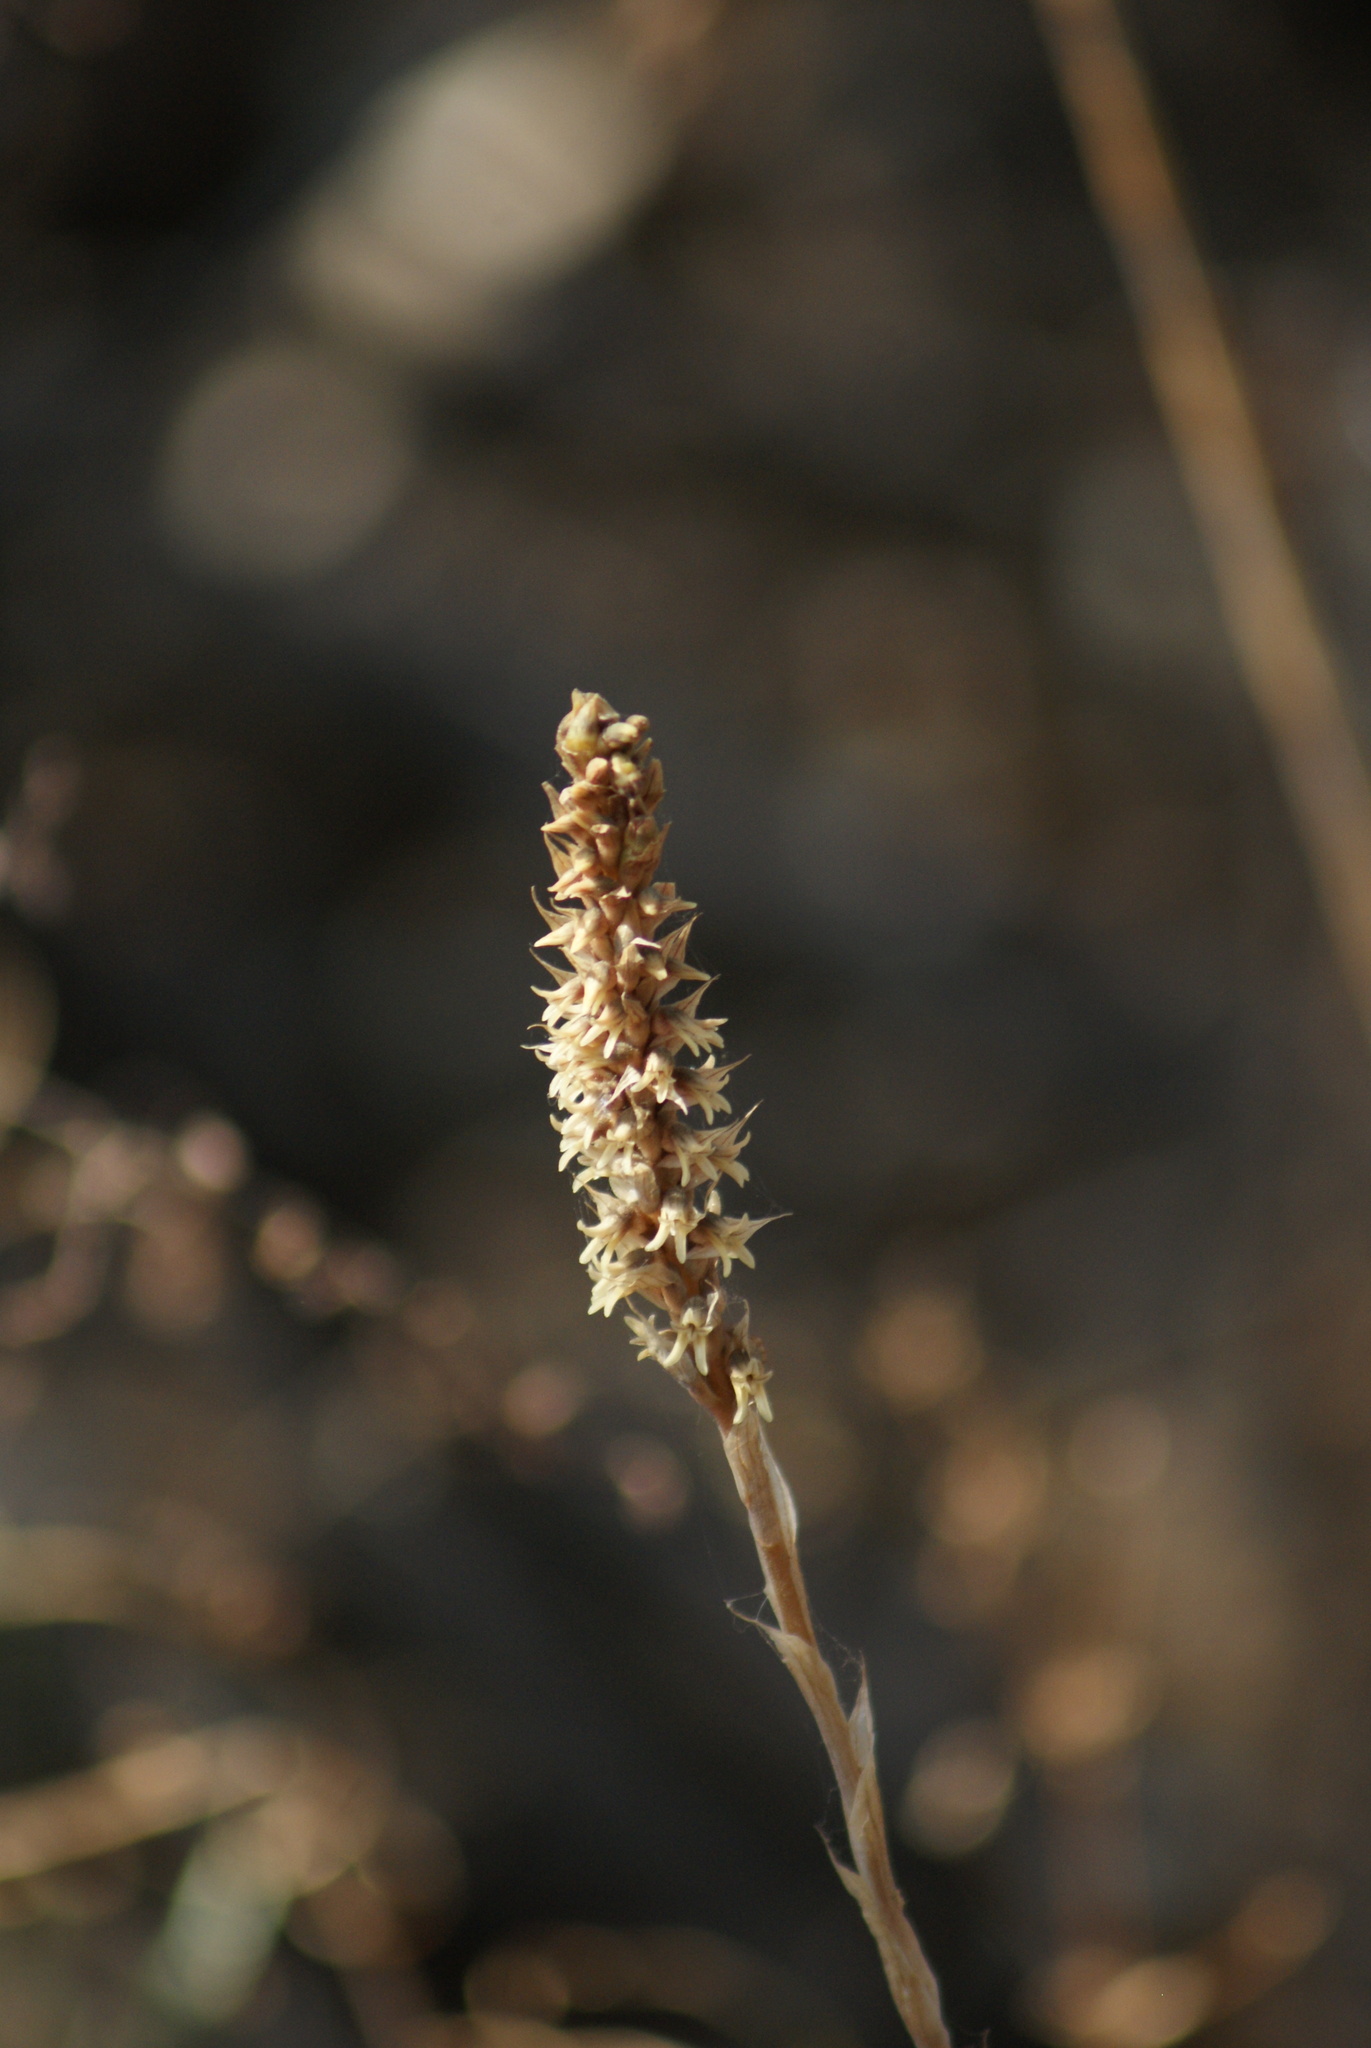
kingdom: Plantae
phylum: Tracheophyta
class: Liliopsida
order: Asparagales
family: Orchidaceae
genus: Aulosepalum
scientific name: Aulosepalum pyramidale
